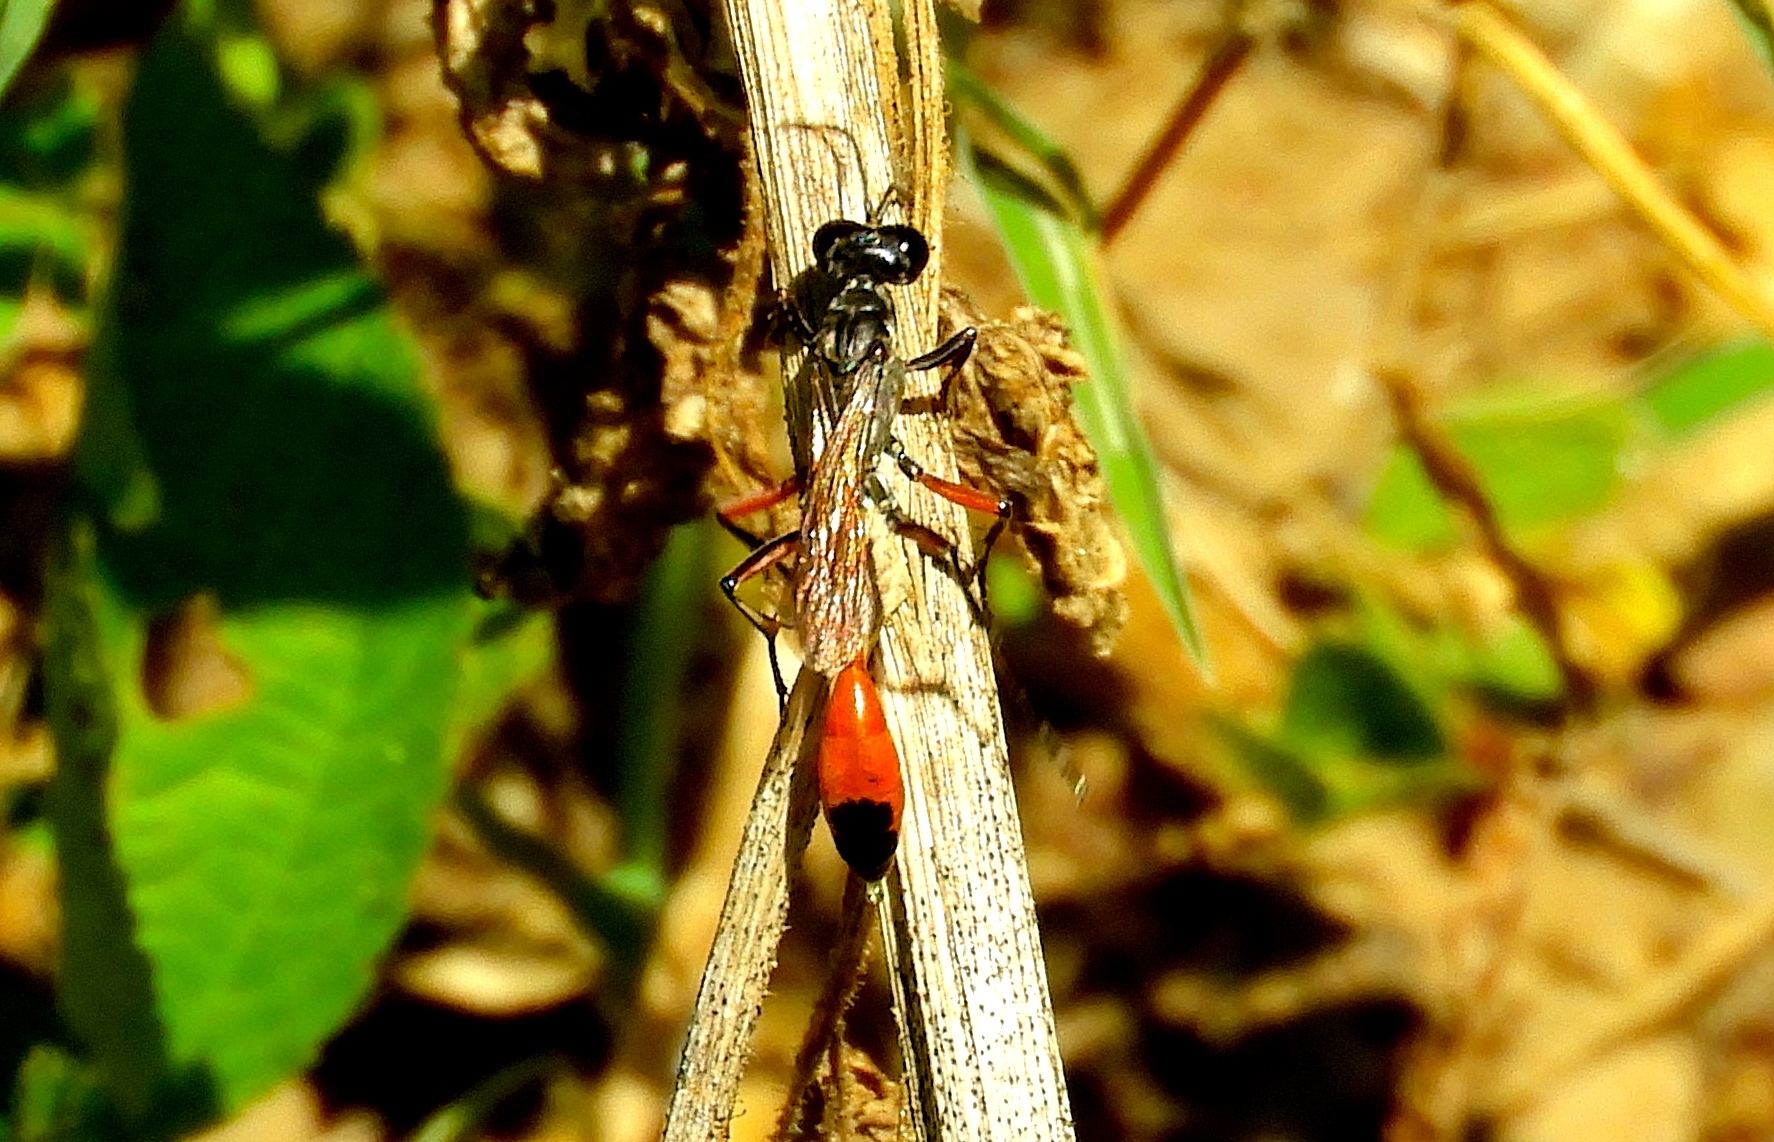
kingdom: Animalia
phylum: Arthropoda
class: Insecta
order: Hymenoptera
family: Sphecidae
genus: Ammophila
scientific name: Ammophila
